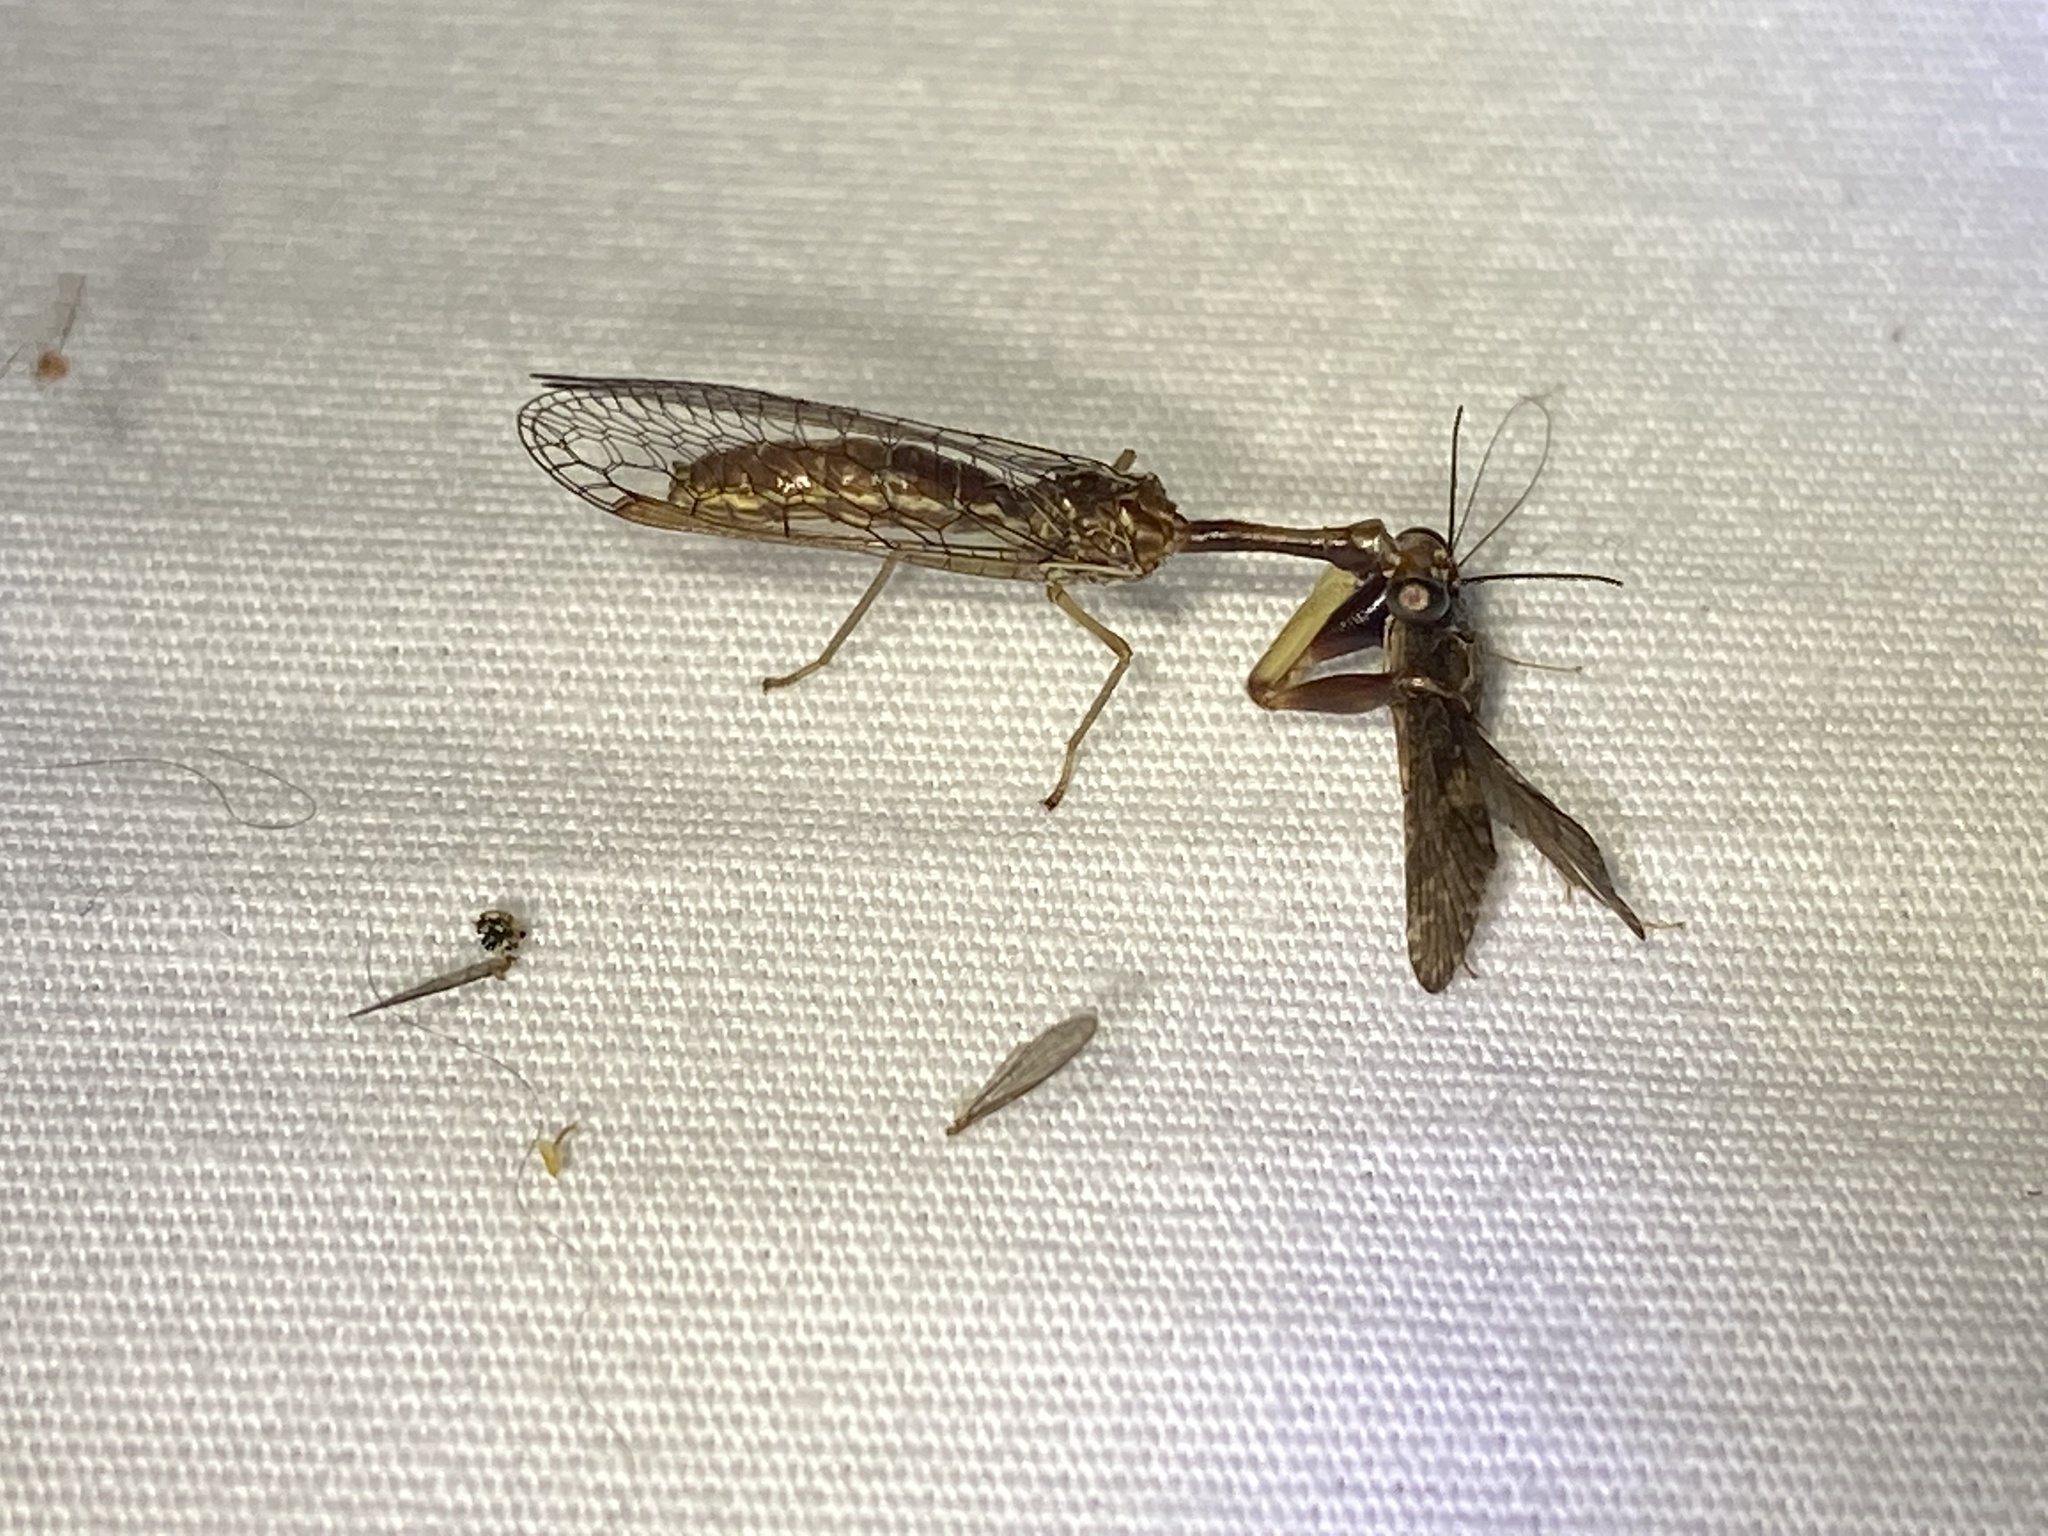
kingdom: Animalia
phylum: Arthropoda
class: Insecta
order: Neuroptera
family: Mantispidae
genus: Leptomantispa
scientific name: Leptomantispa pulchella
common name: Stevens's mantidfly
